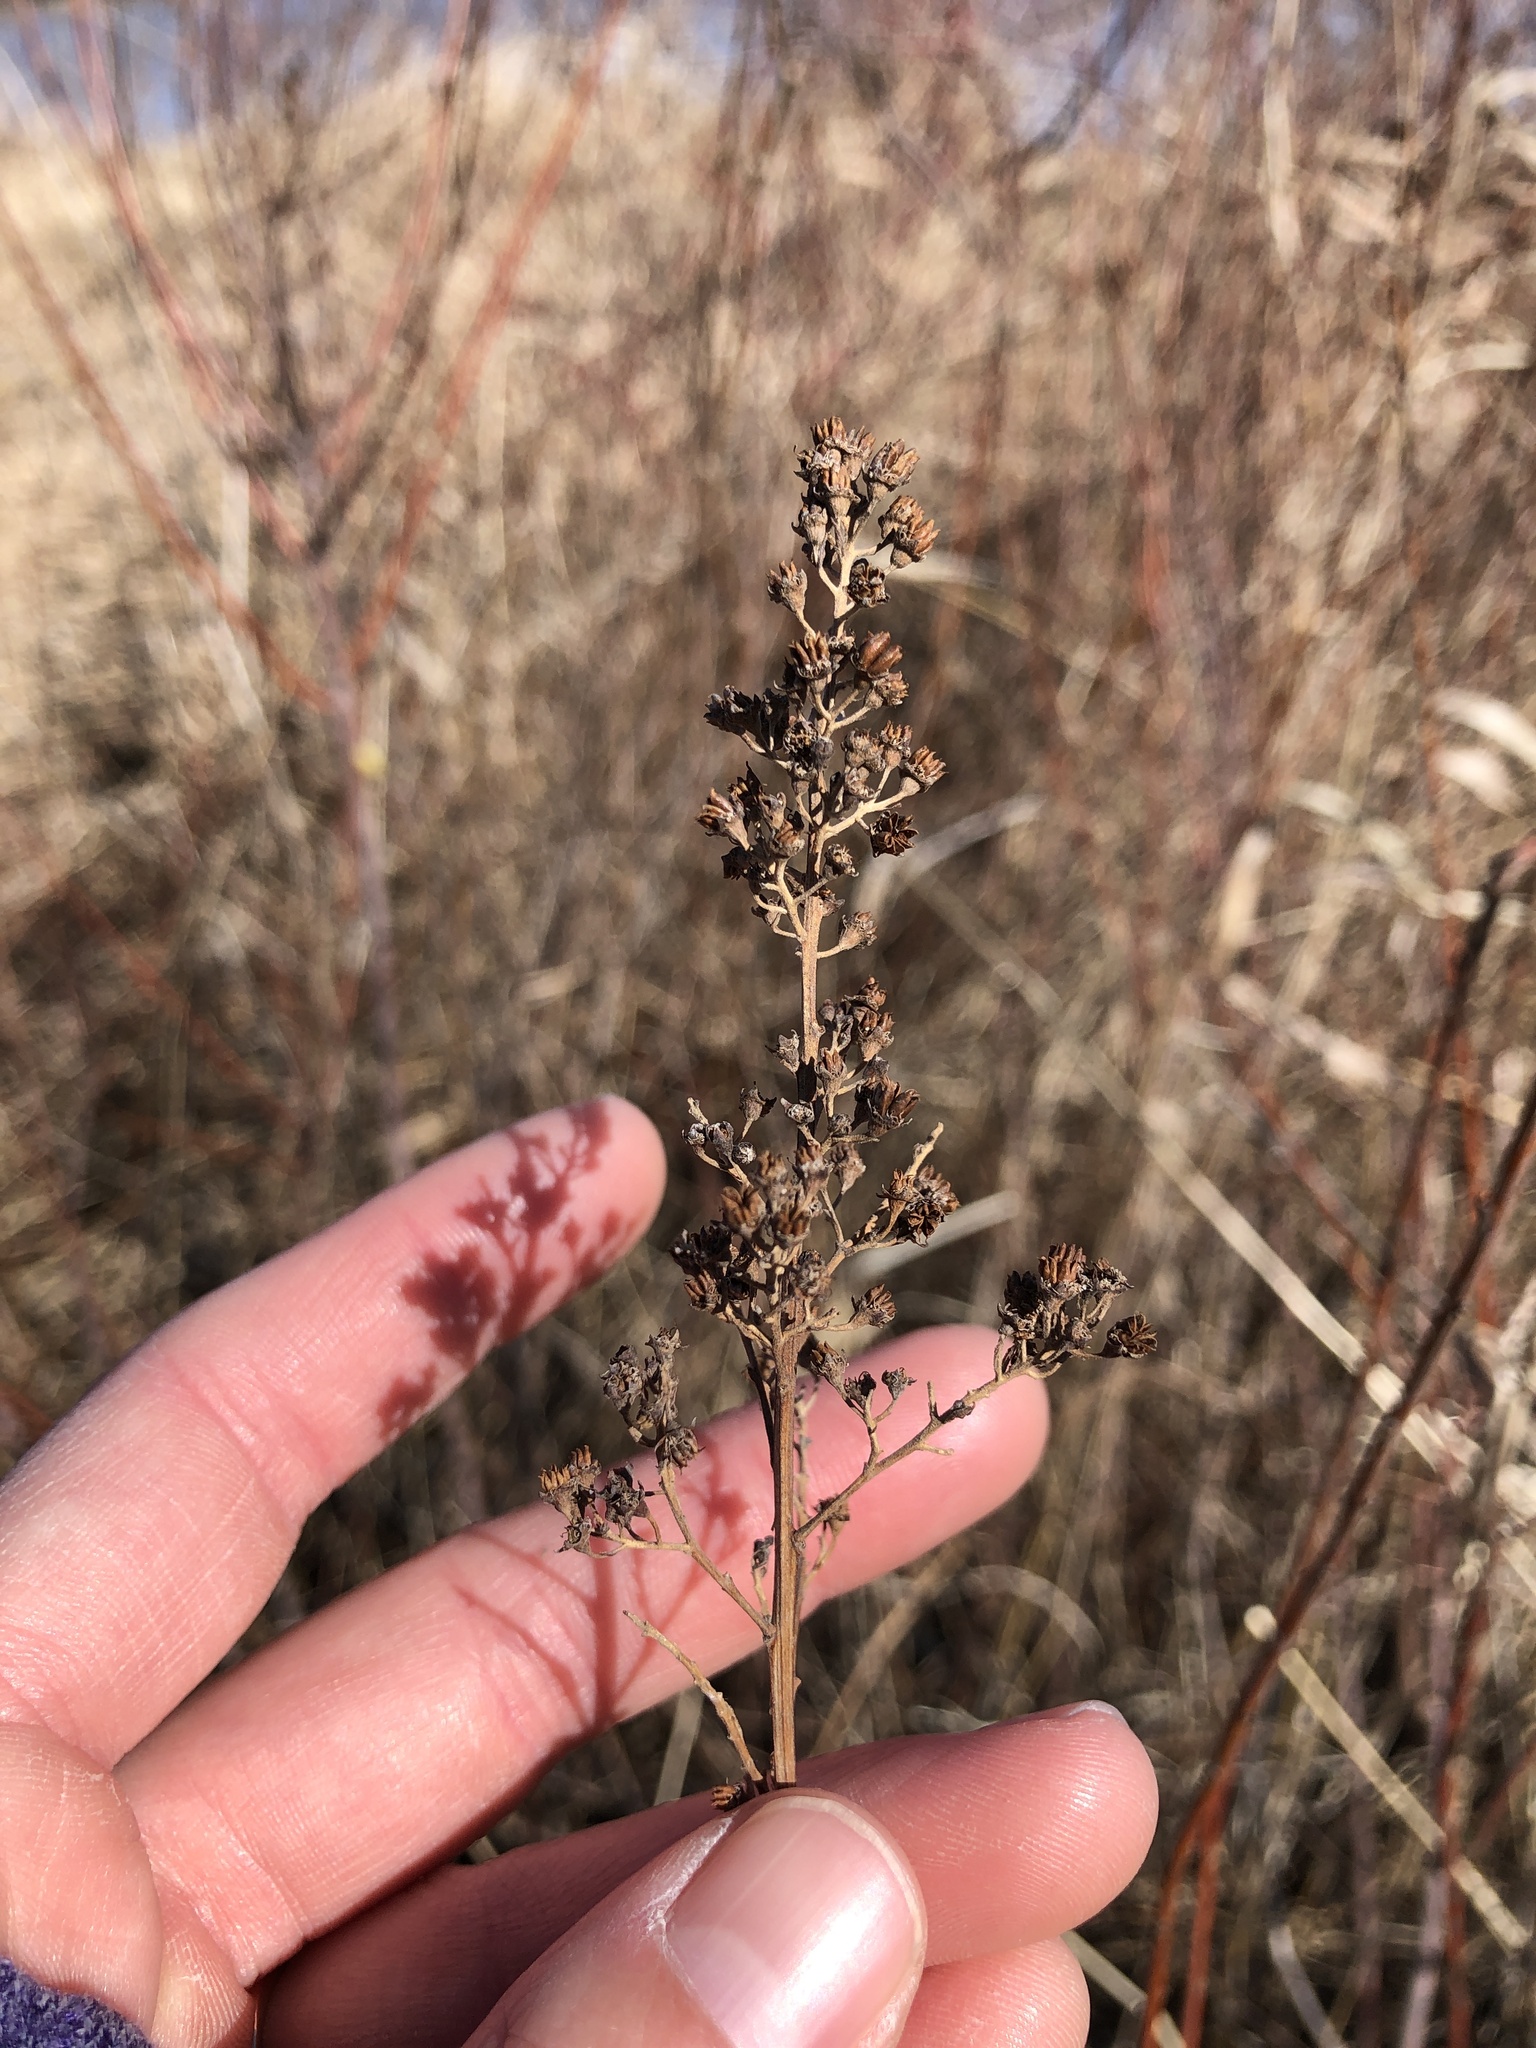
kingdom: Plantae
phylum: Tracheophyta
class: Magnoliopsida
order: Rosales
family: Rosaceae
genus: Spiraea
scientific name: Spiraea alba
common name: Pale bridewort
